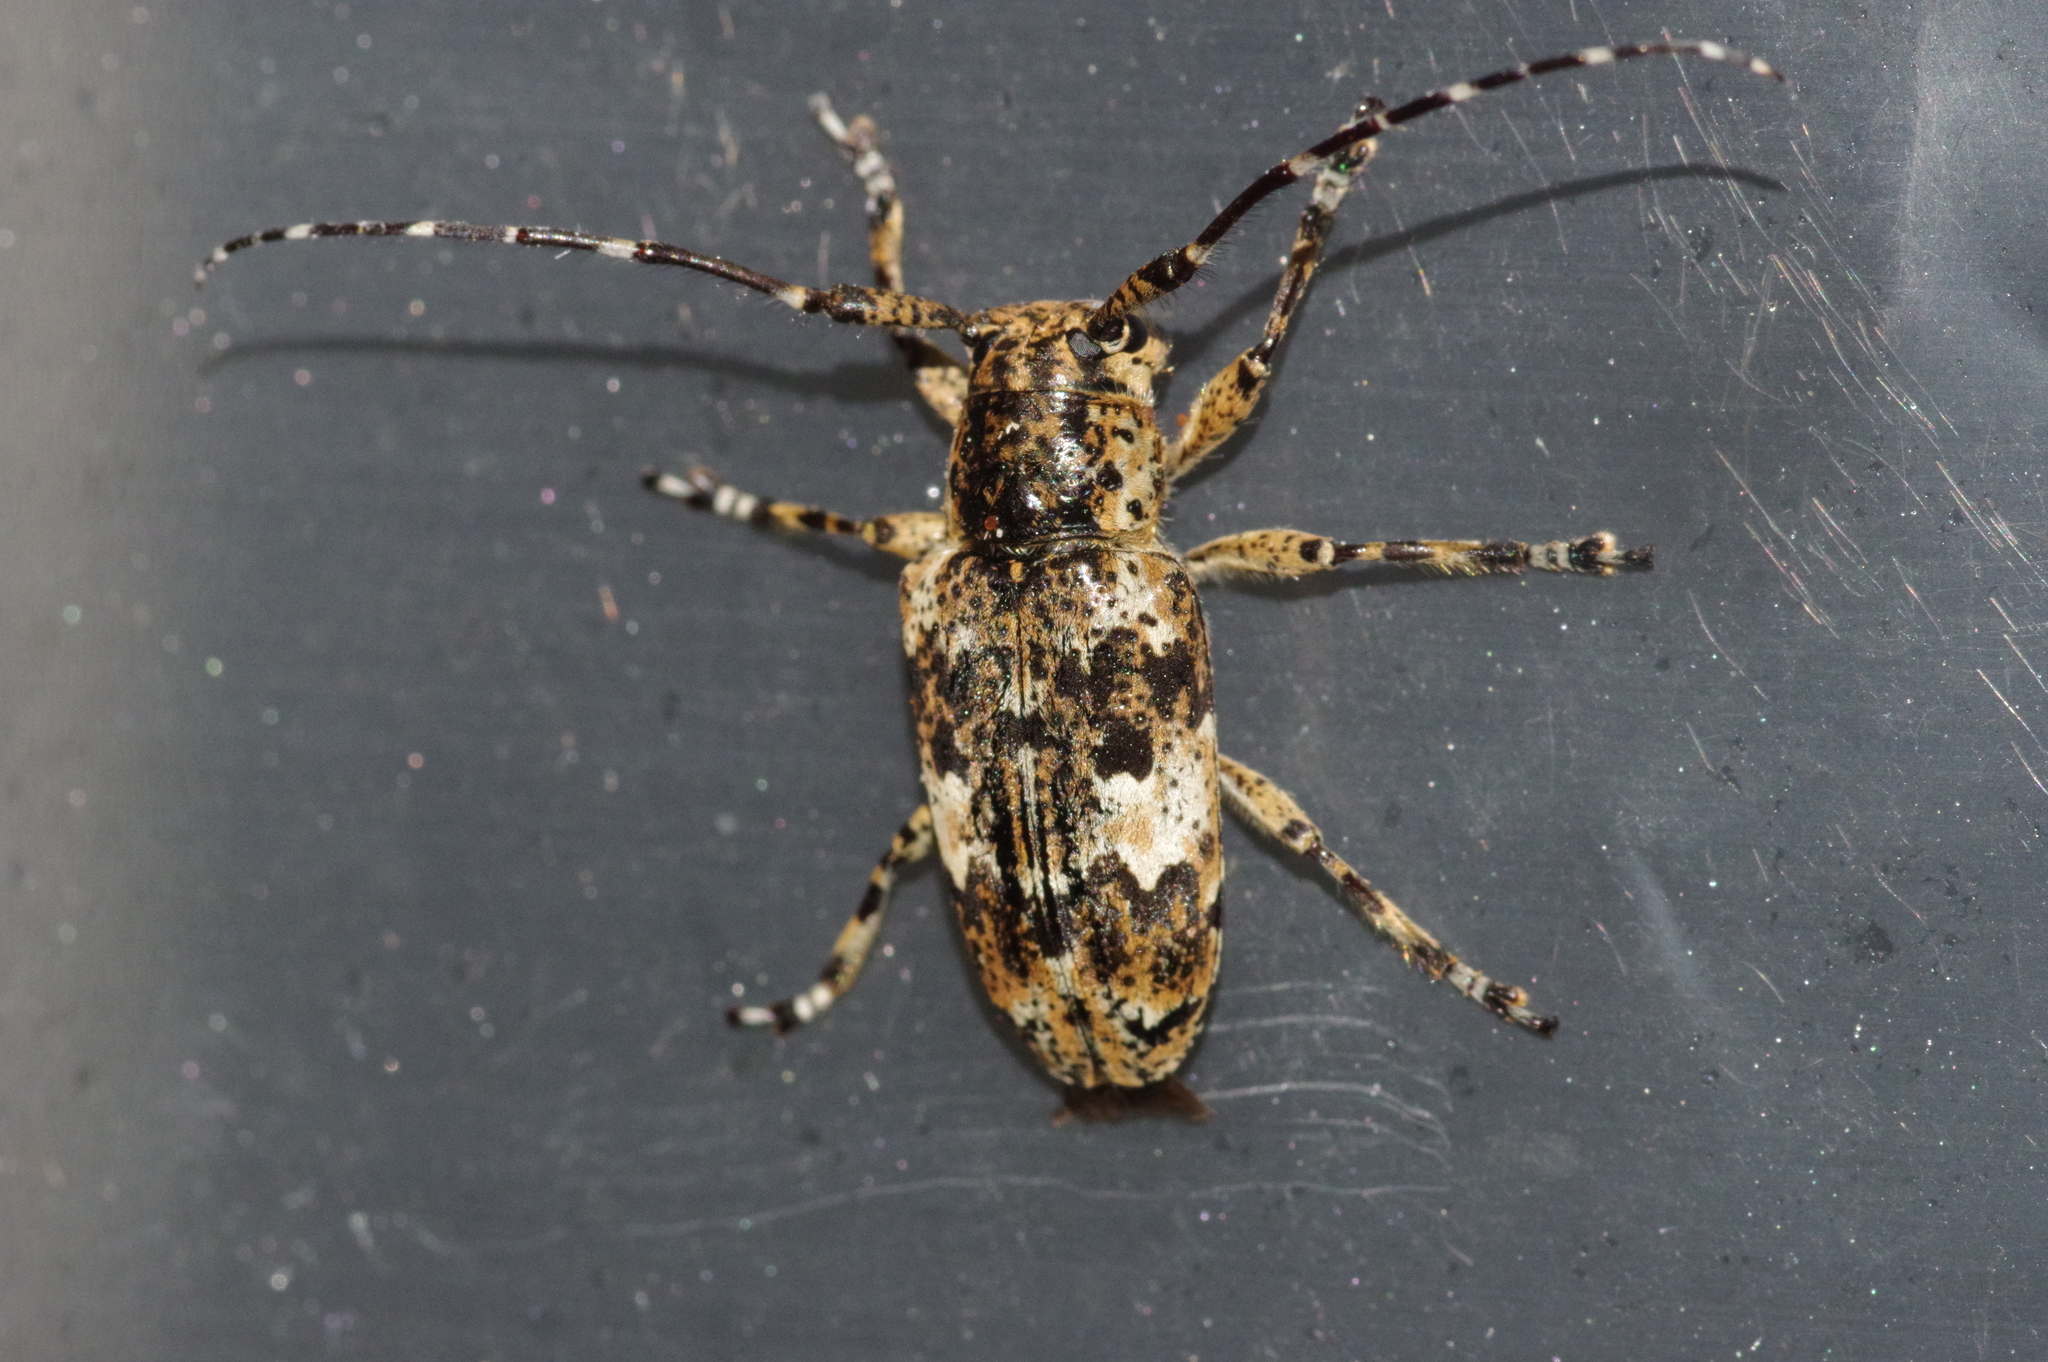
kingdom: Animalia
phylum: Arthropoda
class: Insecta
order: Coleoptera
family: Cerambycidae
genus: Agelasta
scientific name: Agelasta konoi
